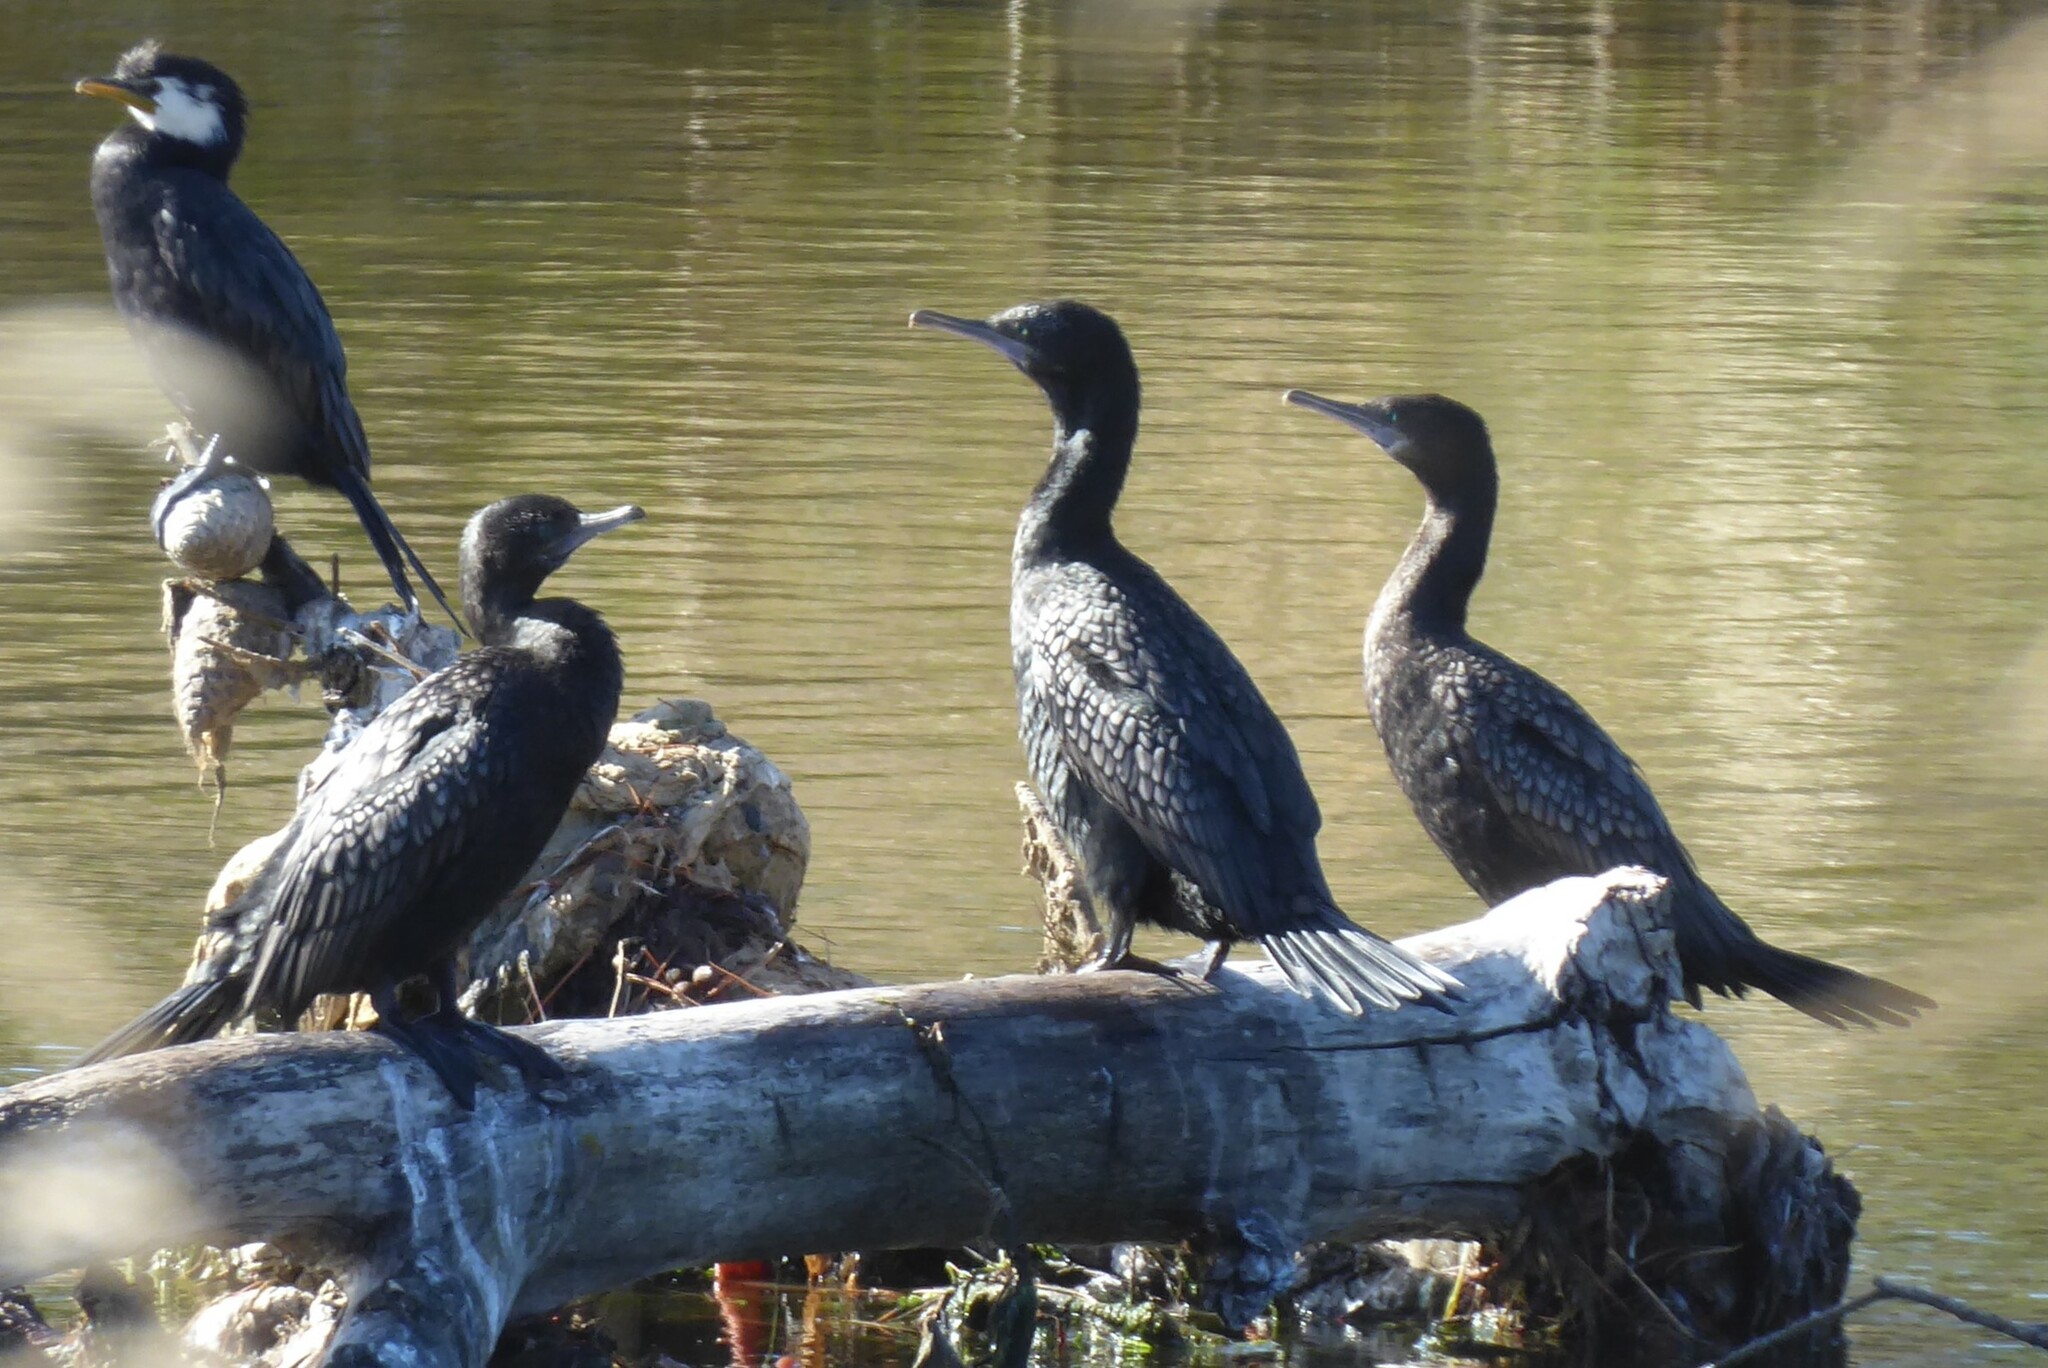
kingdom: Animalia
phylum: Chordata
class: Aves
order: Suliformes
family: Phalacrocoracidae
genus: Phalacrocorax
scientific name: Phalacrocorax sulcirostris
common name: Little black cormorant
